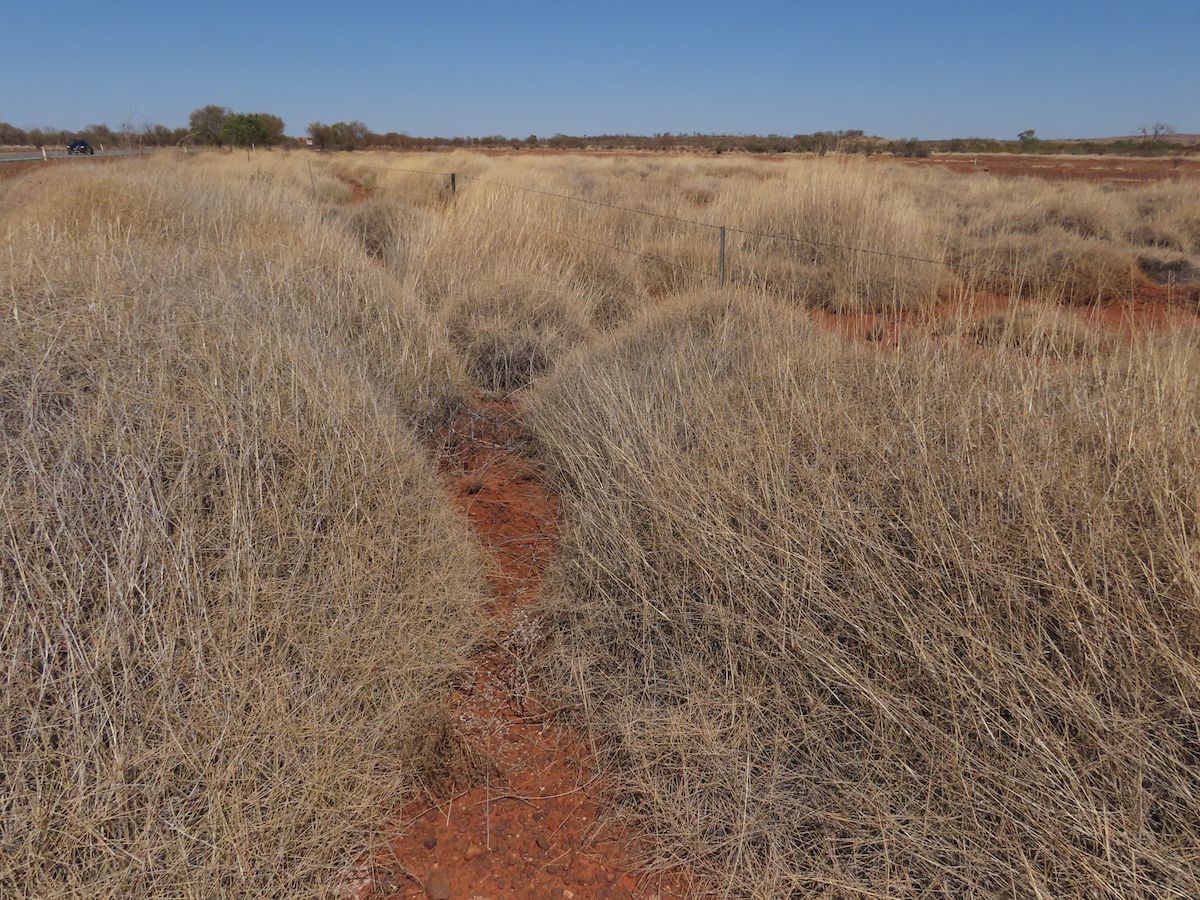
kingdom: Plantae
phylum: Tracheophyta
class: Liliopsida
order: Poales
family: Poaceae
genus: Triodia
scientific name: Triodia longiceps
